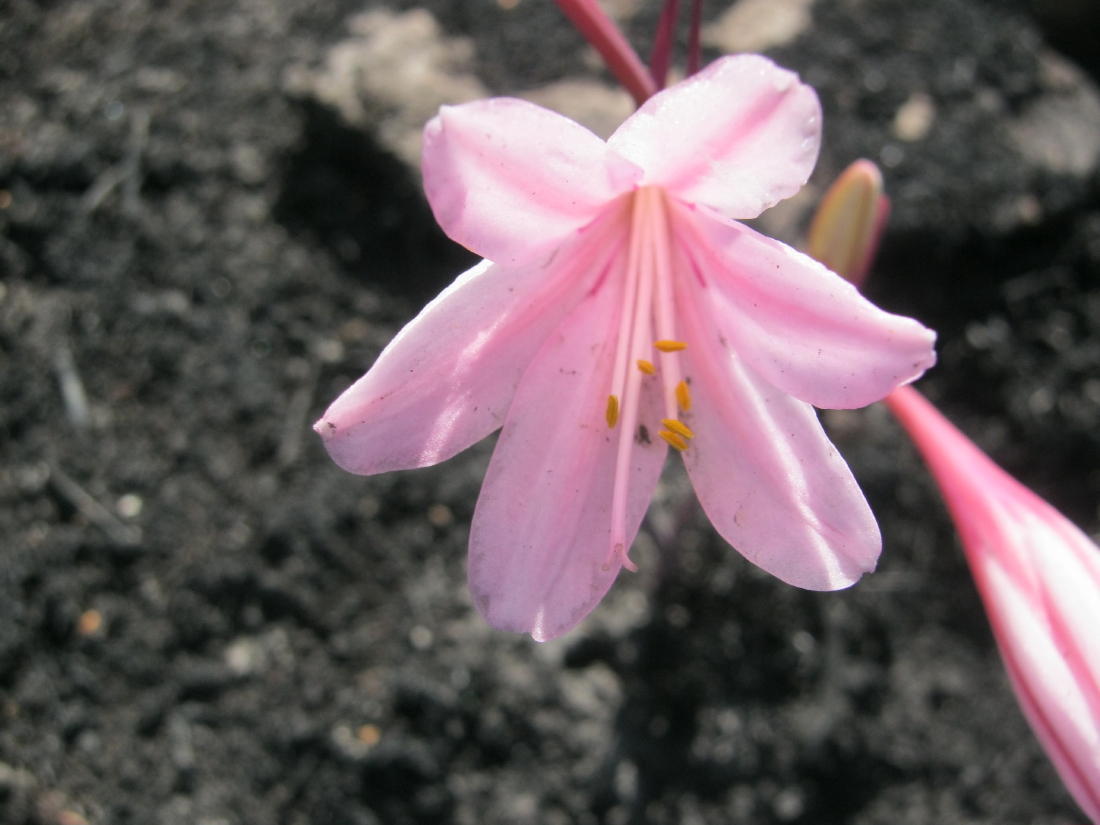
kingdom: Plantae
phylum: Tracheophyta
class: Liliopsida
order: Asparagales
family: Amaryllidaceae
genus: Cyrtanthus
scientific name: Cyrtanthus debilis
